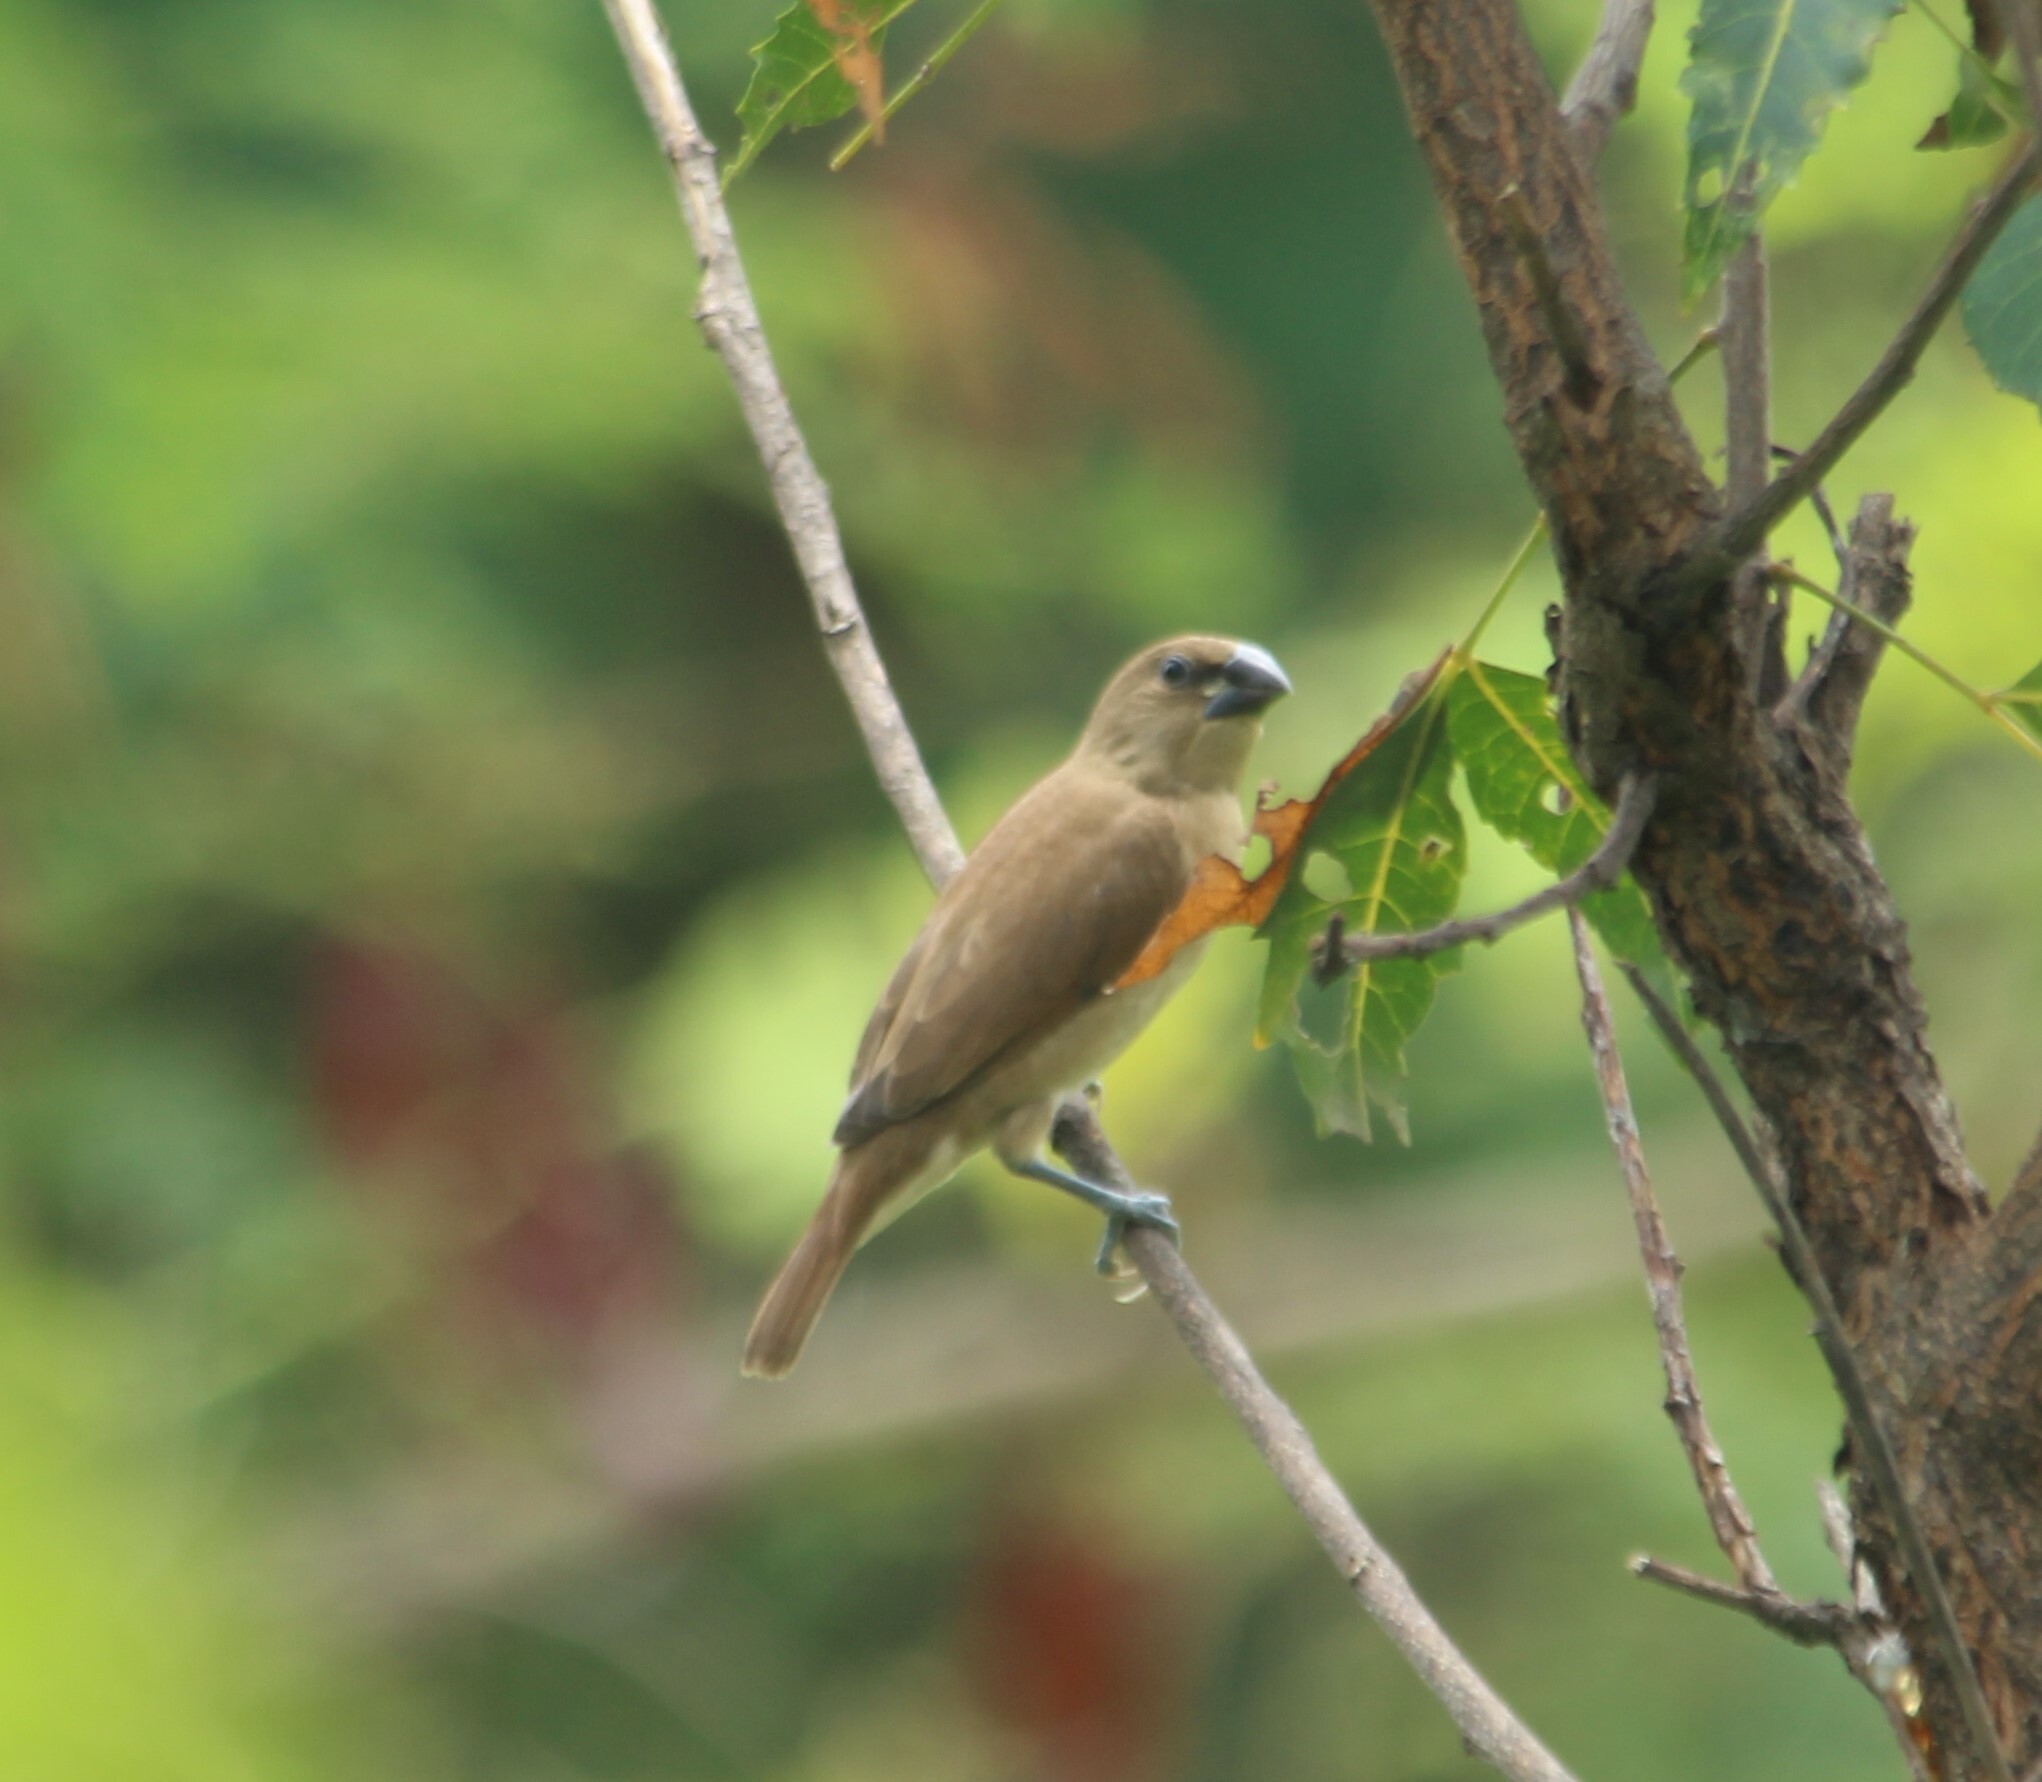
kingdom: Animalia
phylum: Chordata
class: Aves
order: Passeriformes
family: Estrildidae
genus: Lonchura
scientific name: Lonchura punctulata
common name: Scaly-breasted munia
